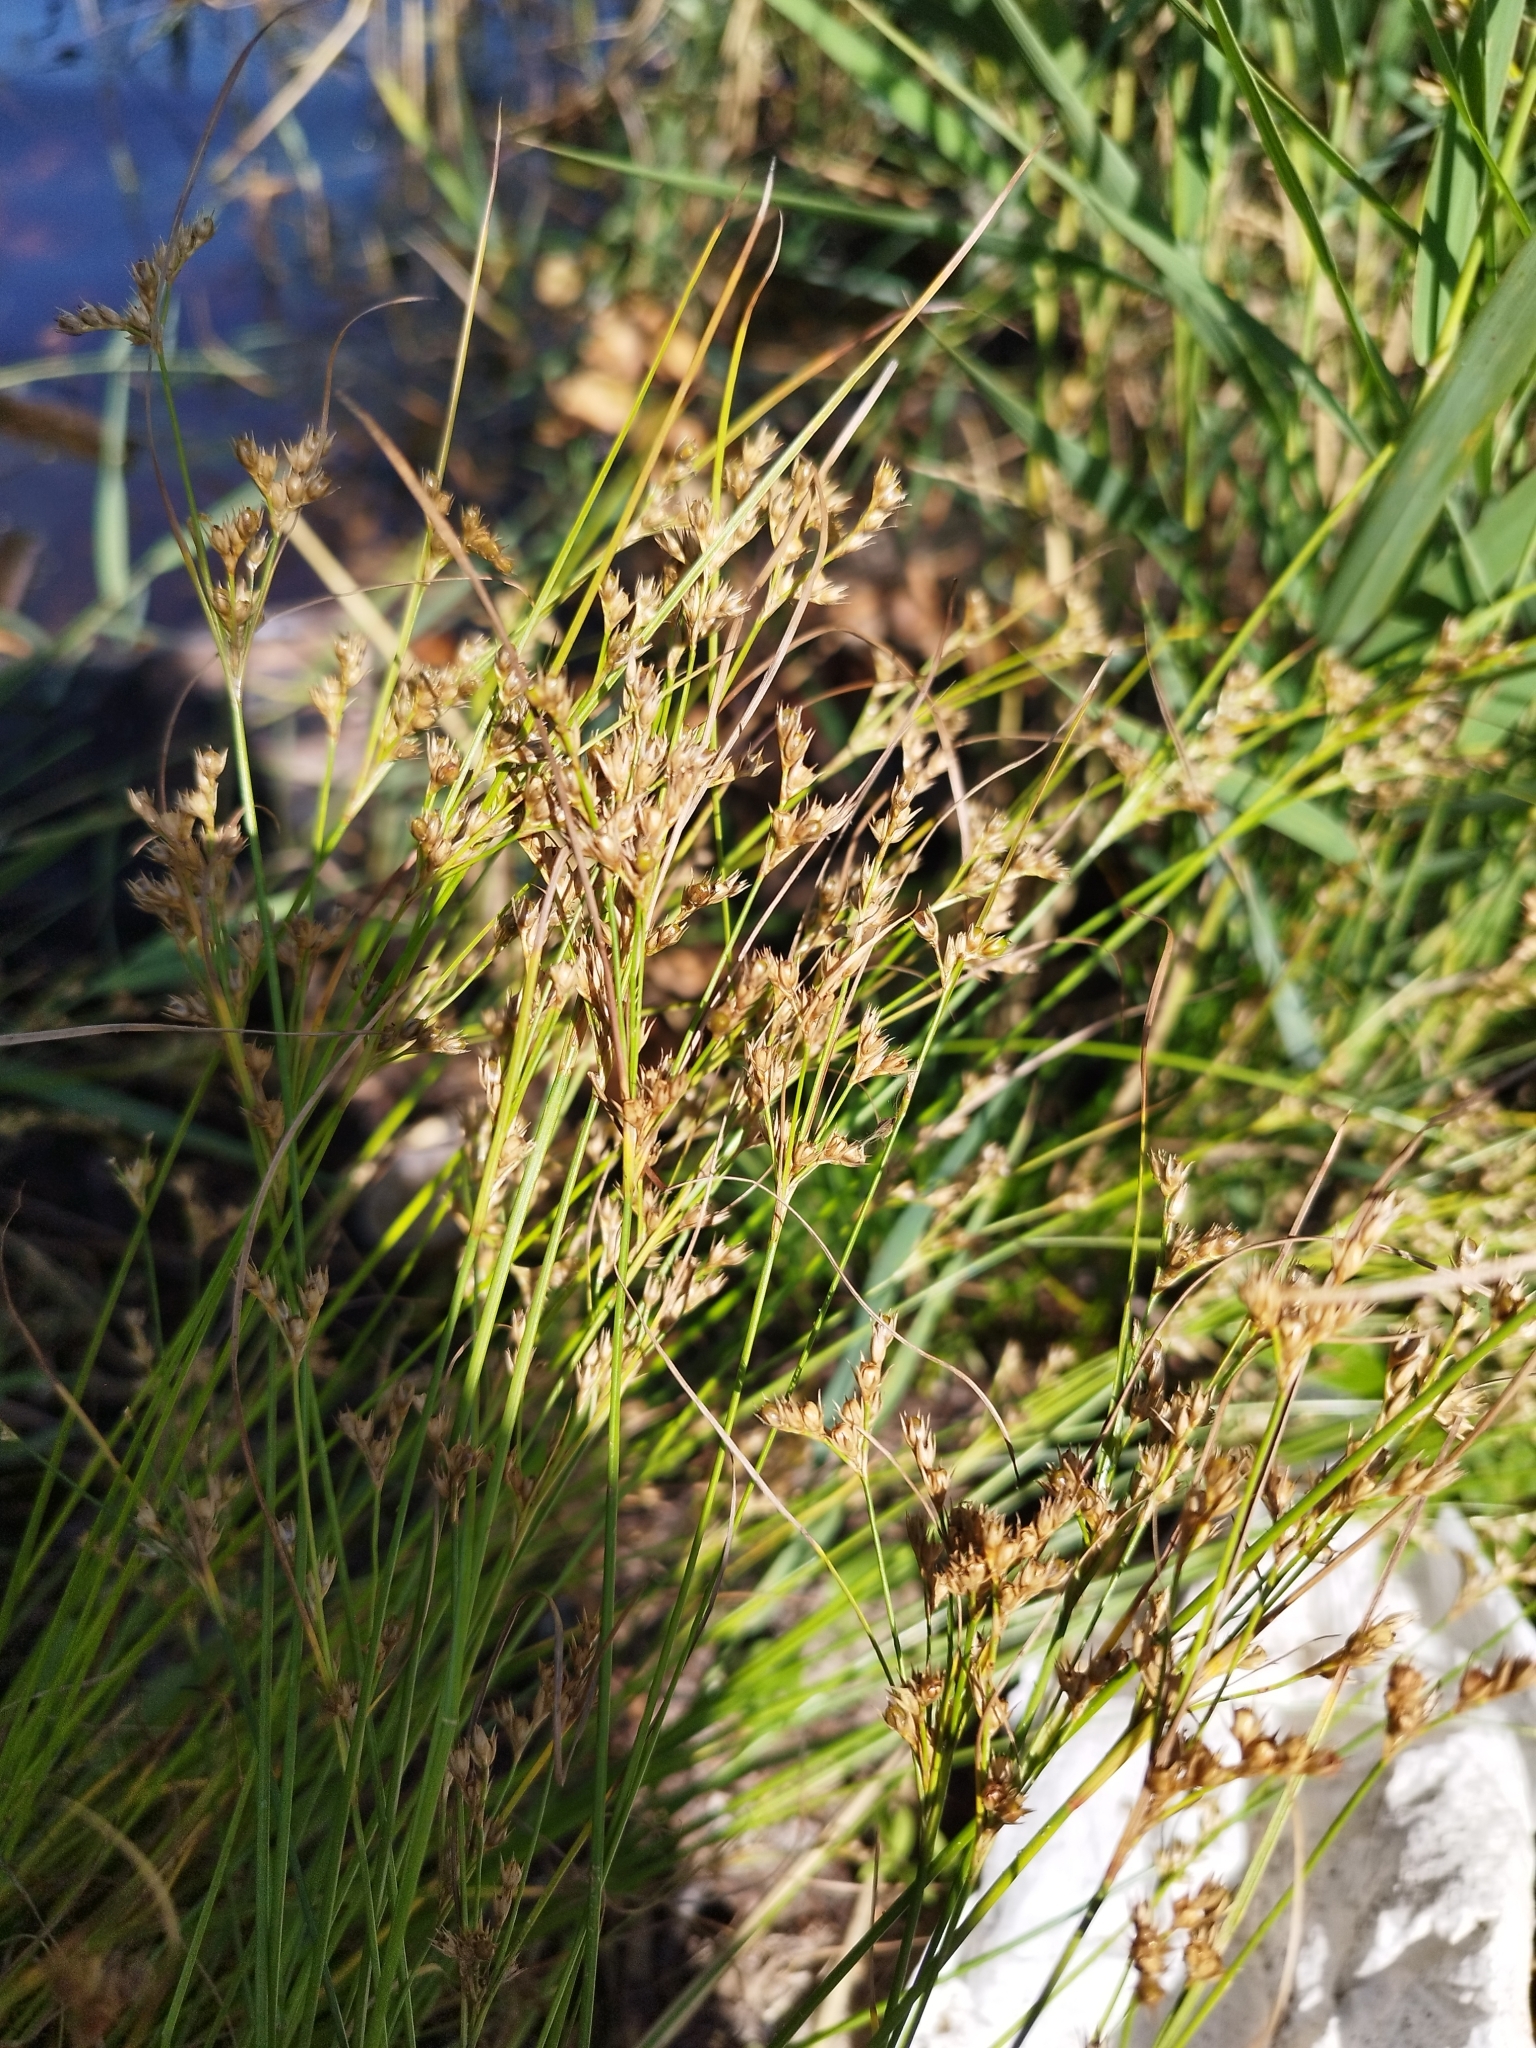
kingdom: Plantae
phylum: Tracheophyta
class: Liliopsida
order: Poales
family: Juncaceae
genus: Juncus
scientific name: Juncus tenuis
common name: Slender rush
